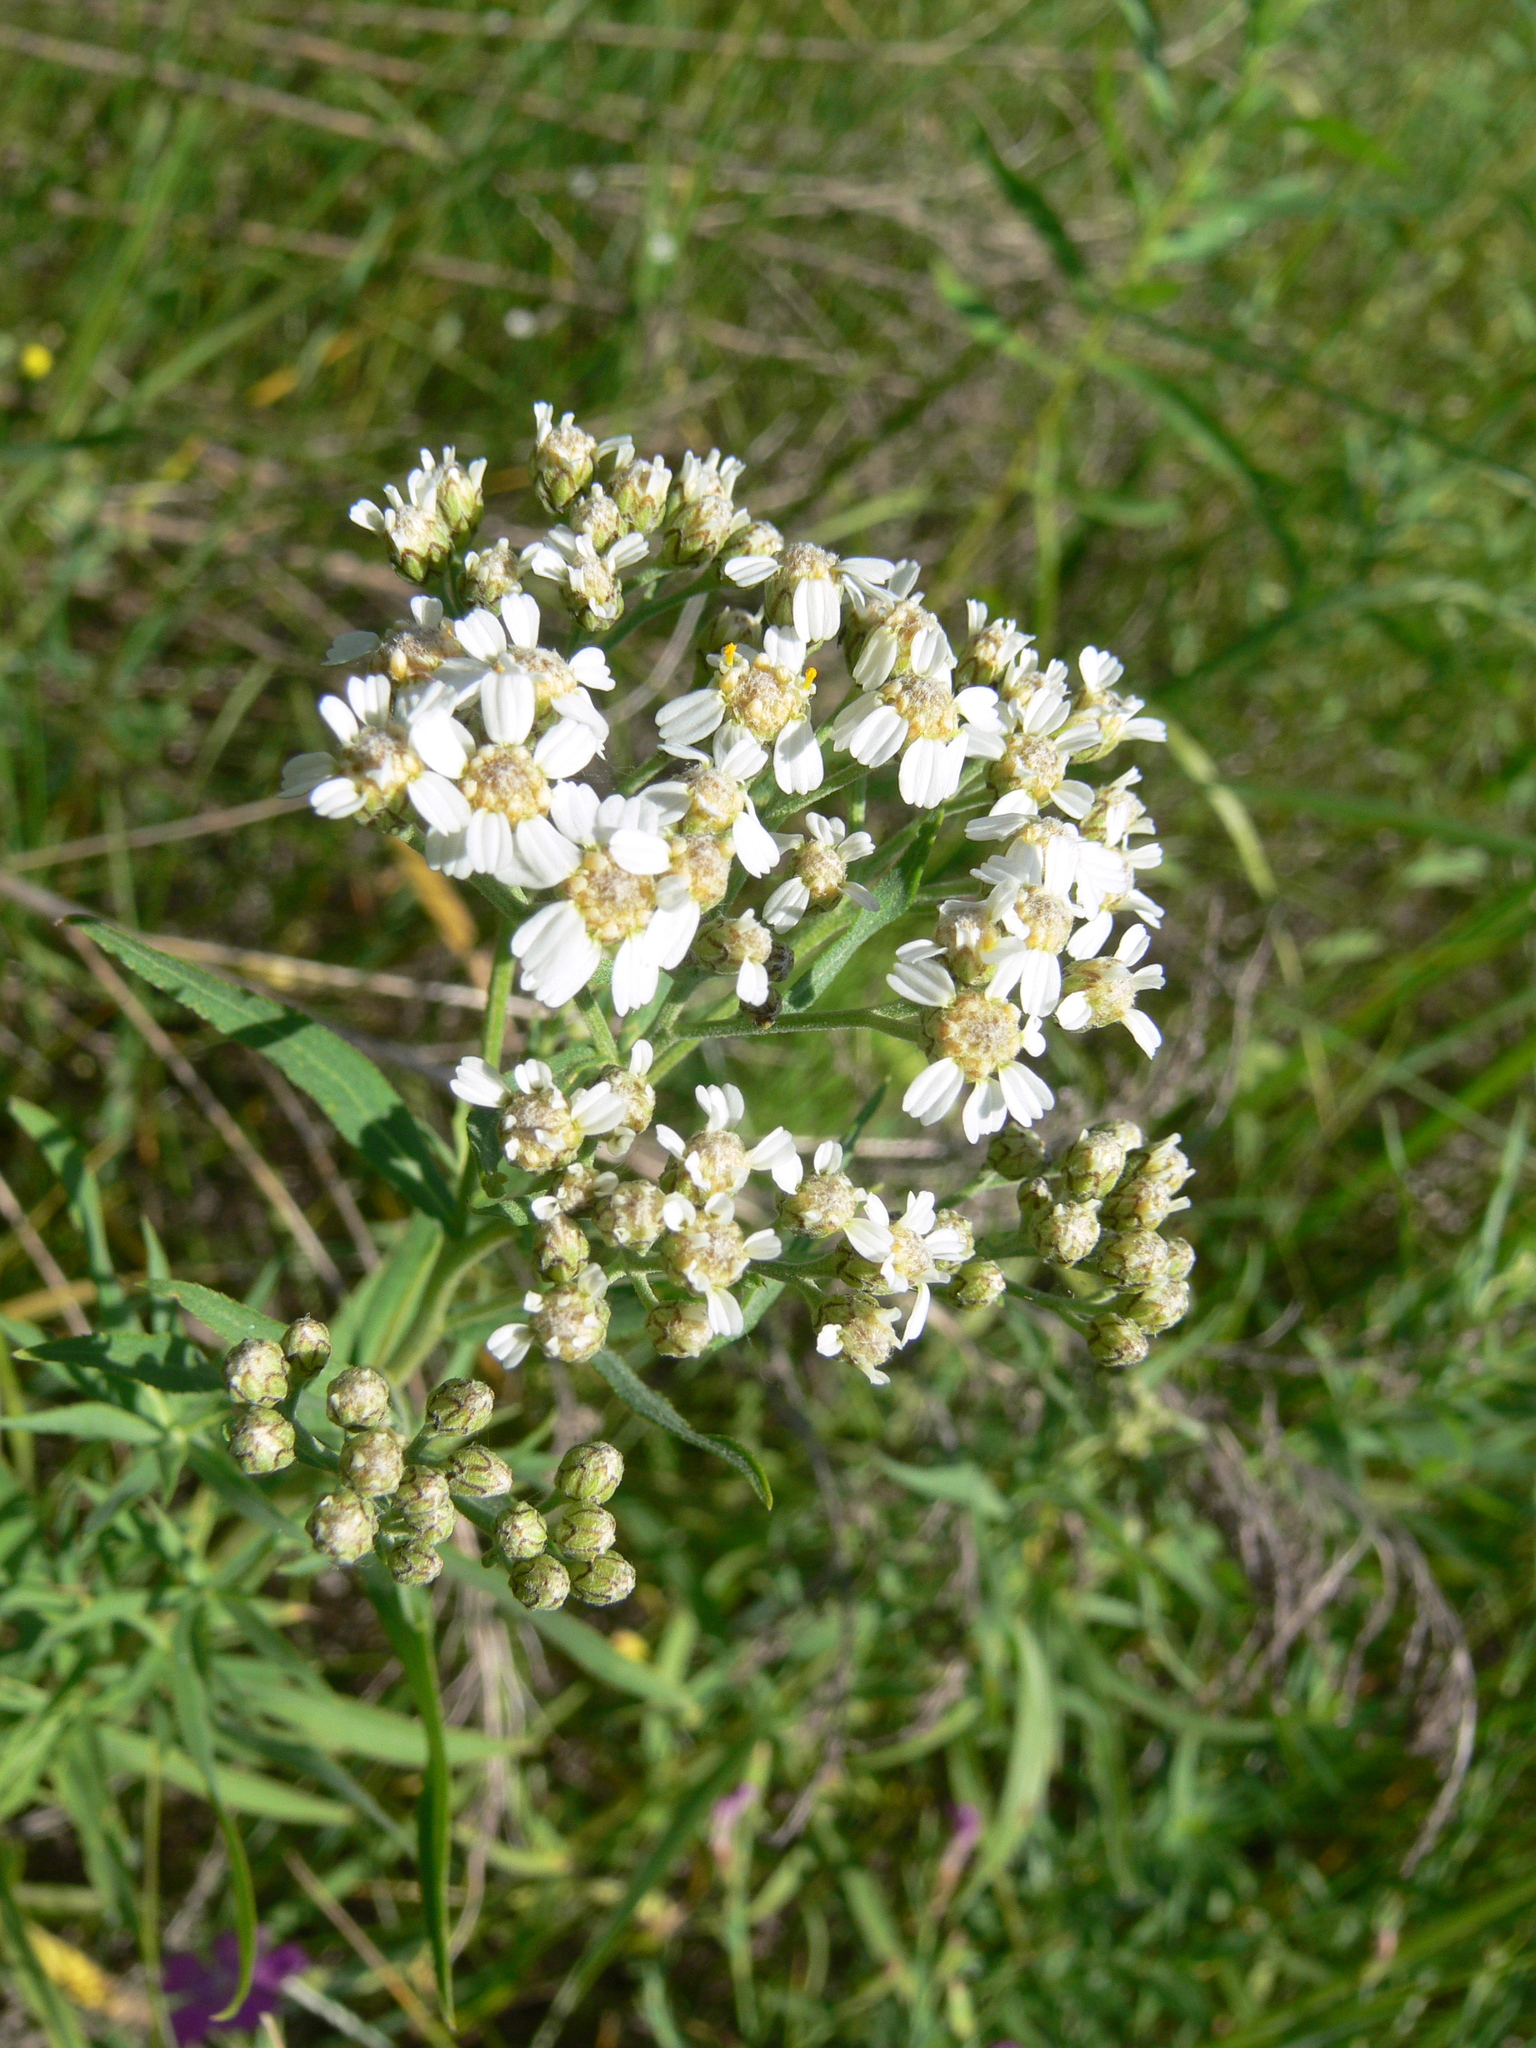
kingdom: Plantae
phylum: Tracheophyta
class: Magnoliopsida
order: Asterales
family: Asteraceae
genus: Achillea
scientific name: Achillea salicifolia
